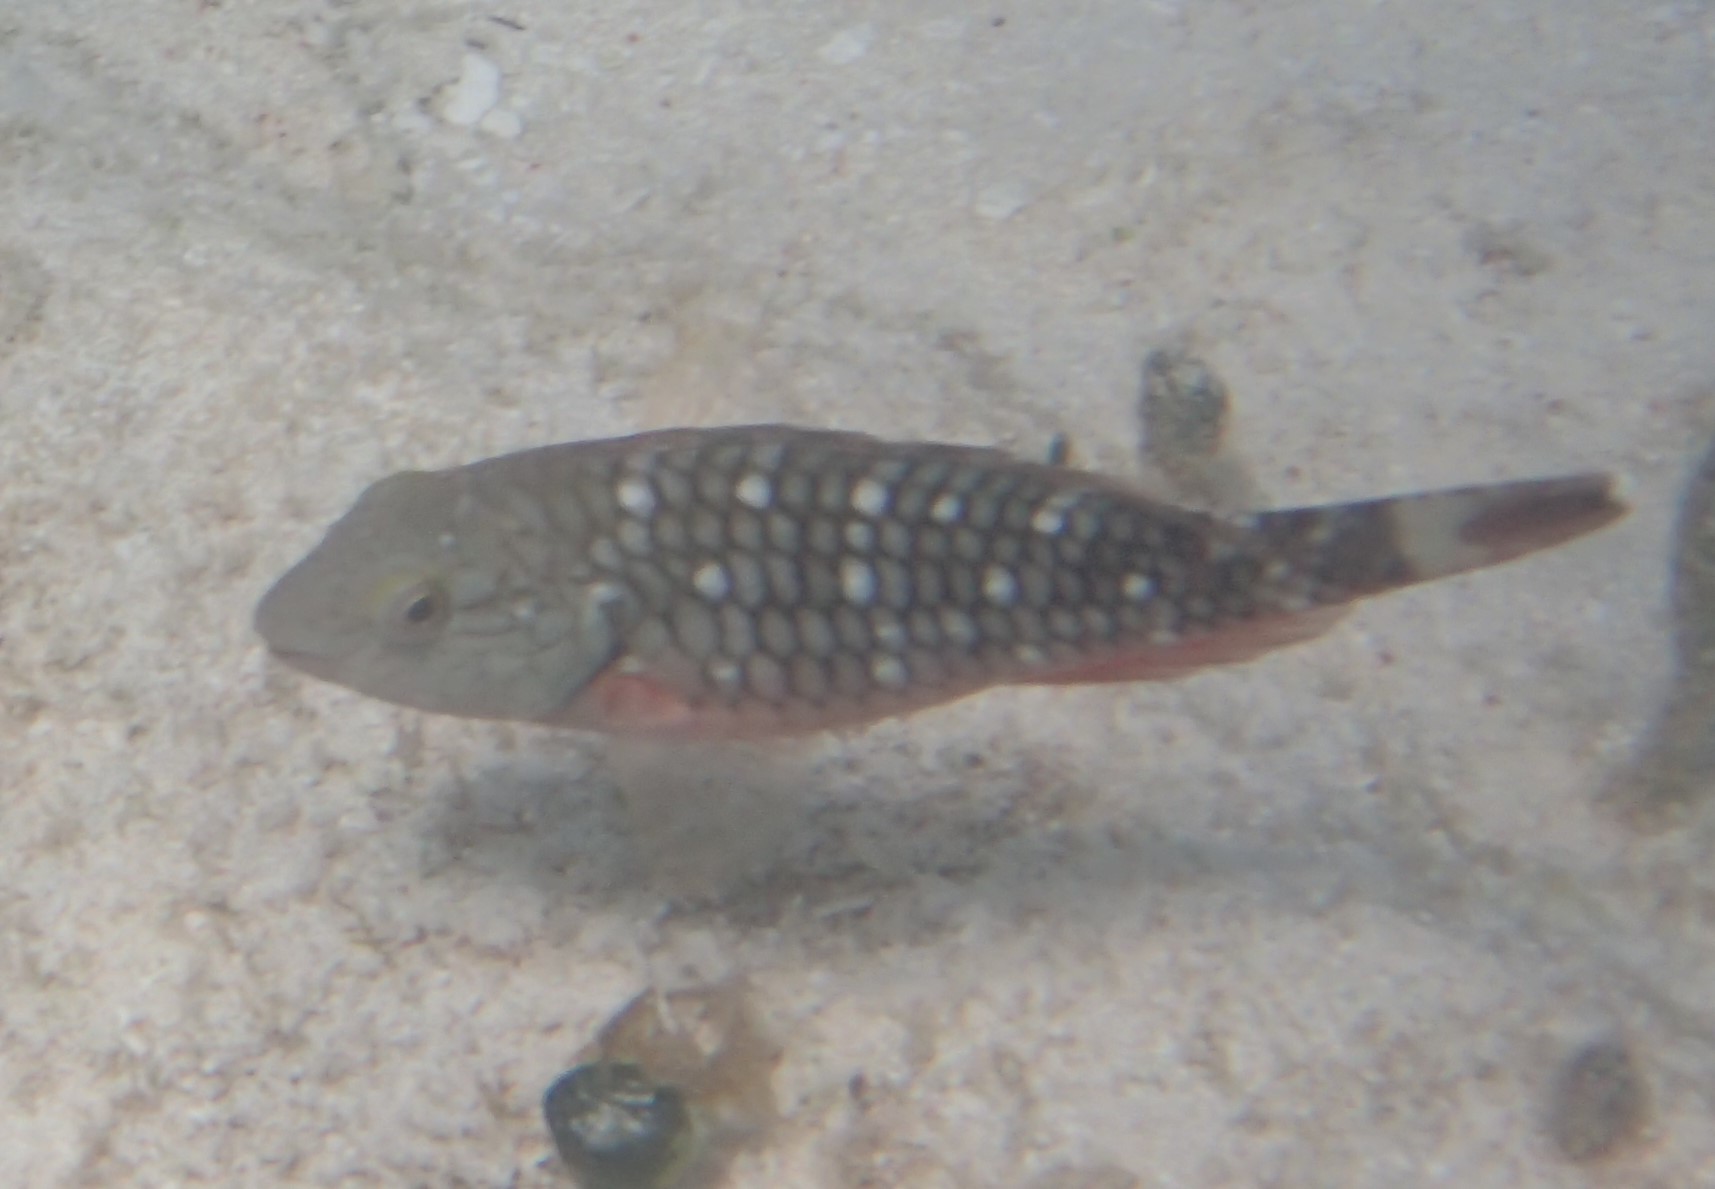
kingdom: Animalia
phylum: Chordata
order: Perciformes
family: Scaridae
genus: Sparisoma
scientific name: Sparisoma viride
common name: Stoplight parrotfish
